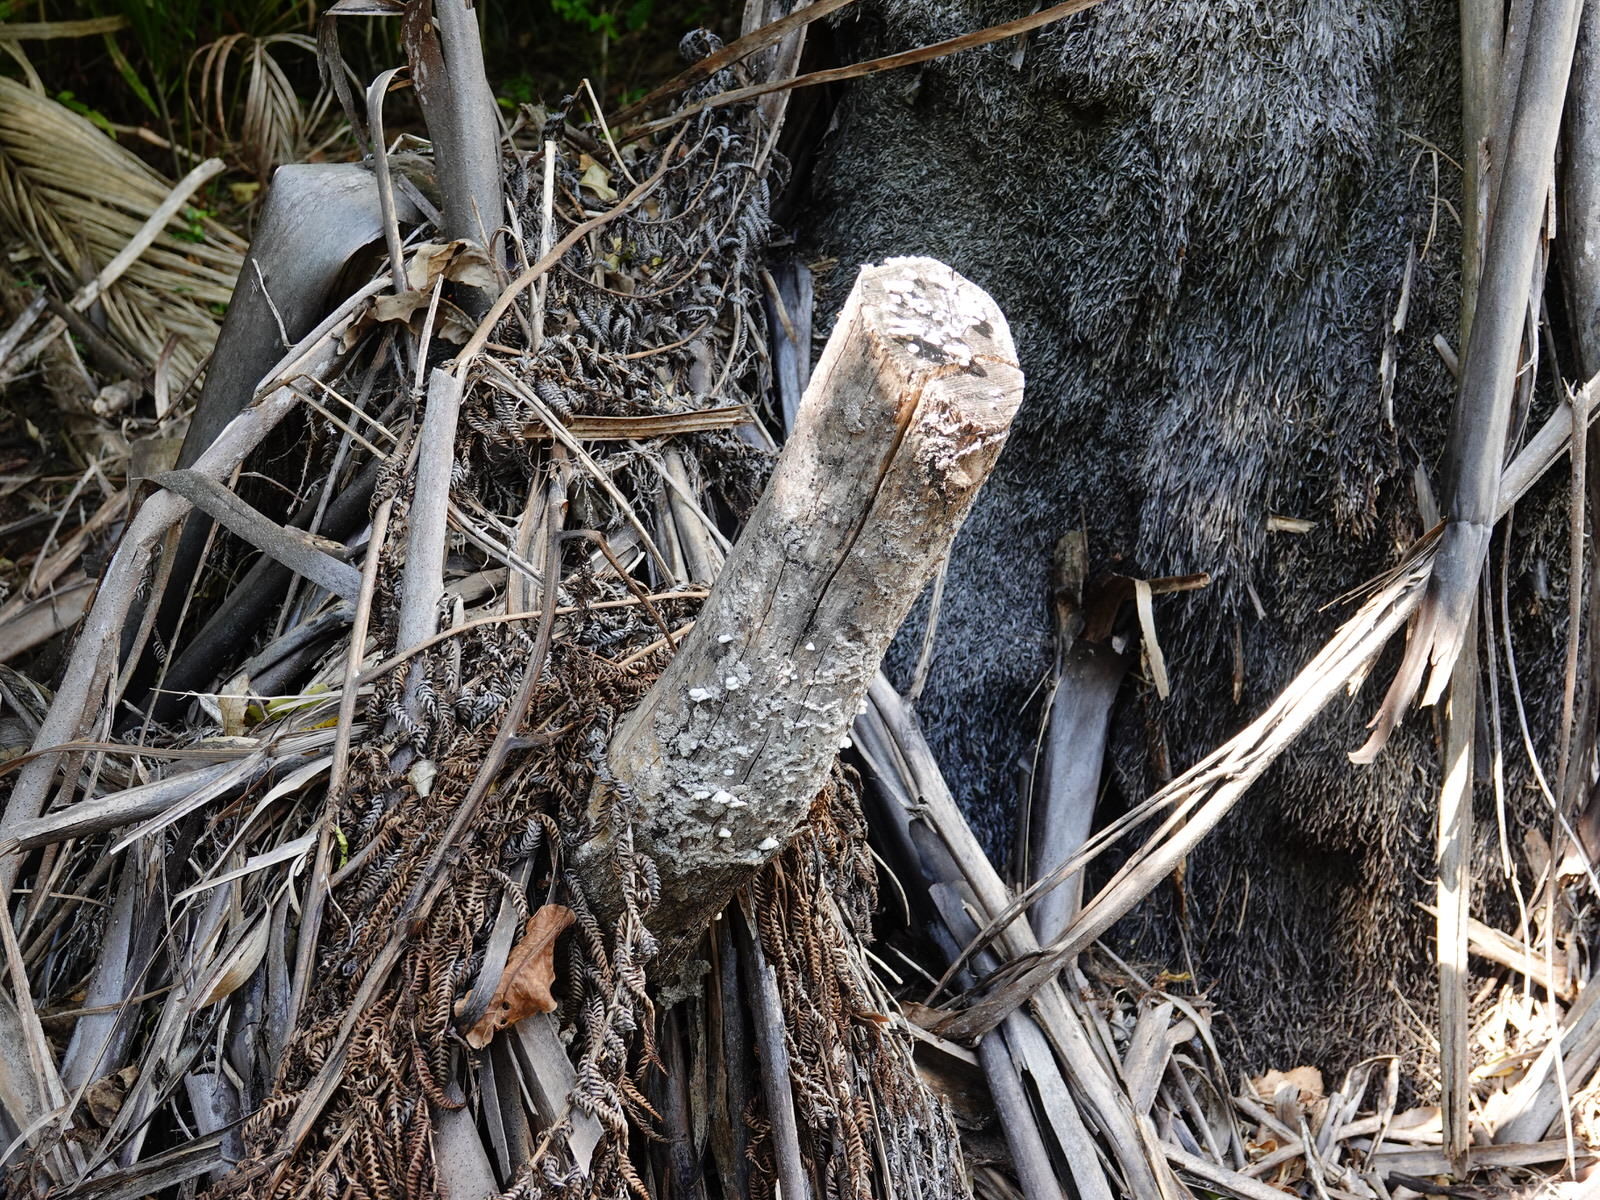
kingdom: Fungi
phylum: Basidiomycota
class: Agaricomycetes
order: Agaricales
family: Schizophyllaceae
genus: Schizophyllum
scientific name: Schizophyllum commune
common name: Common porecrust
